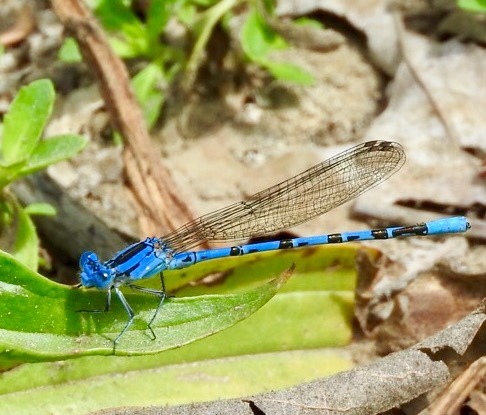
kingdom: Animalia
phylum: Arthropoda
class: Insecta
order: Odonata
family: Coenagrionidae
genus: Argia
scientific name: Argia vivida
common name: Vivid dancer
